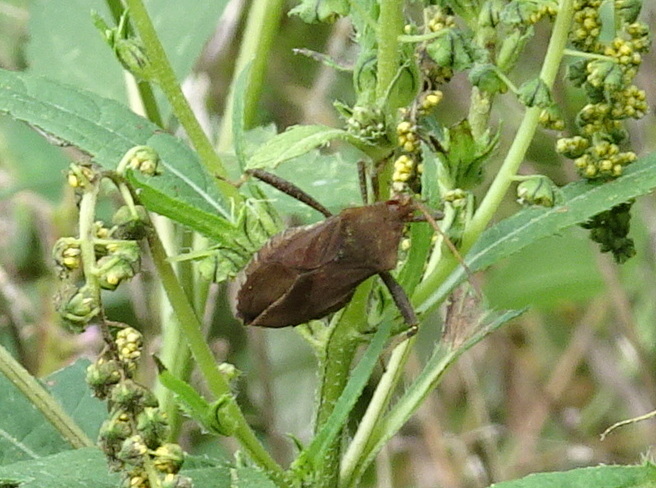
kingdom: Animalia
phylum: Arthropoda
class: Insecta
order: Hemiptera
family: Coreidae
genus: Euthochtha
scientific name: Euthochtha galeator
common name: Helmeted squash bug
